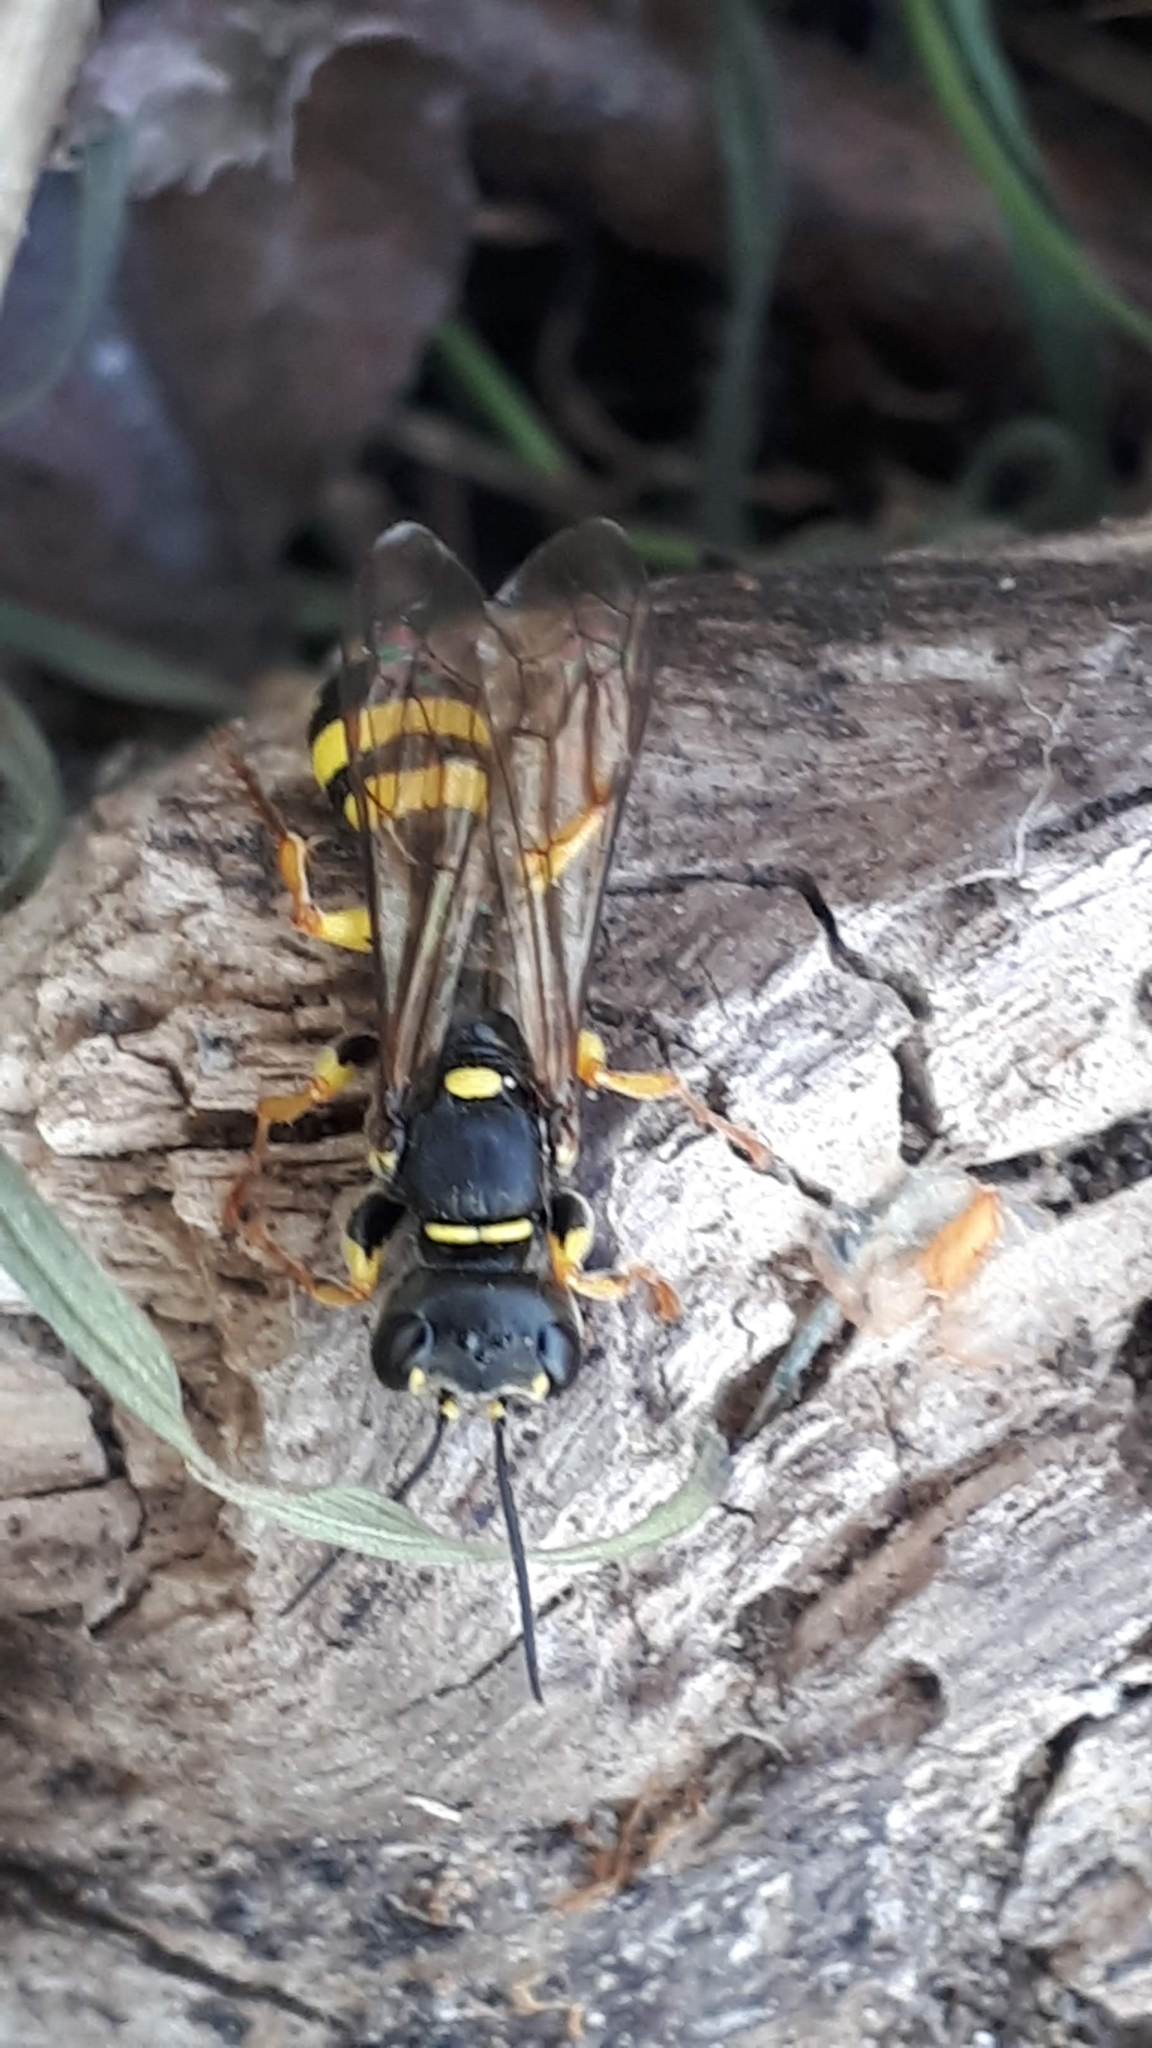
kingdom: Animalia
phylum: Arthropoda
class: Insecta
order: Hymenoptera
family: Crabronidae
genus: Mellinus
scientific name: Mellinus arvensis
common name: Field digger wasp
